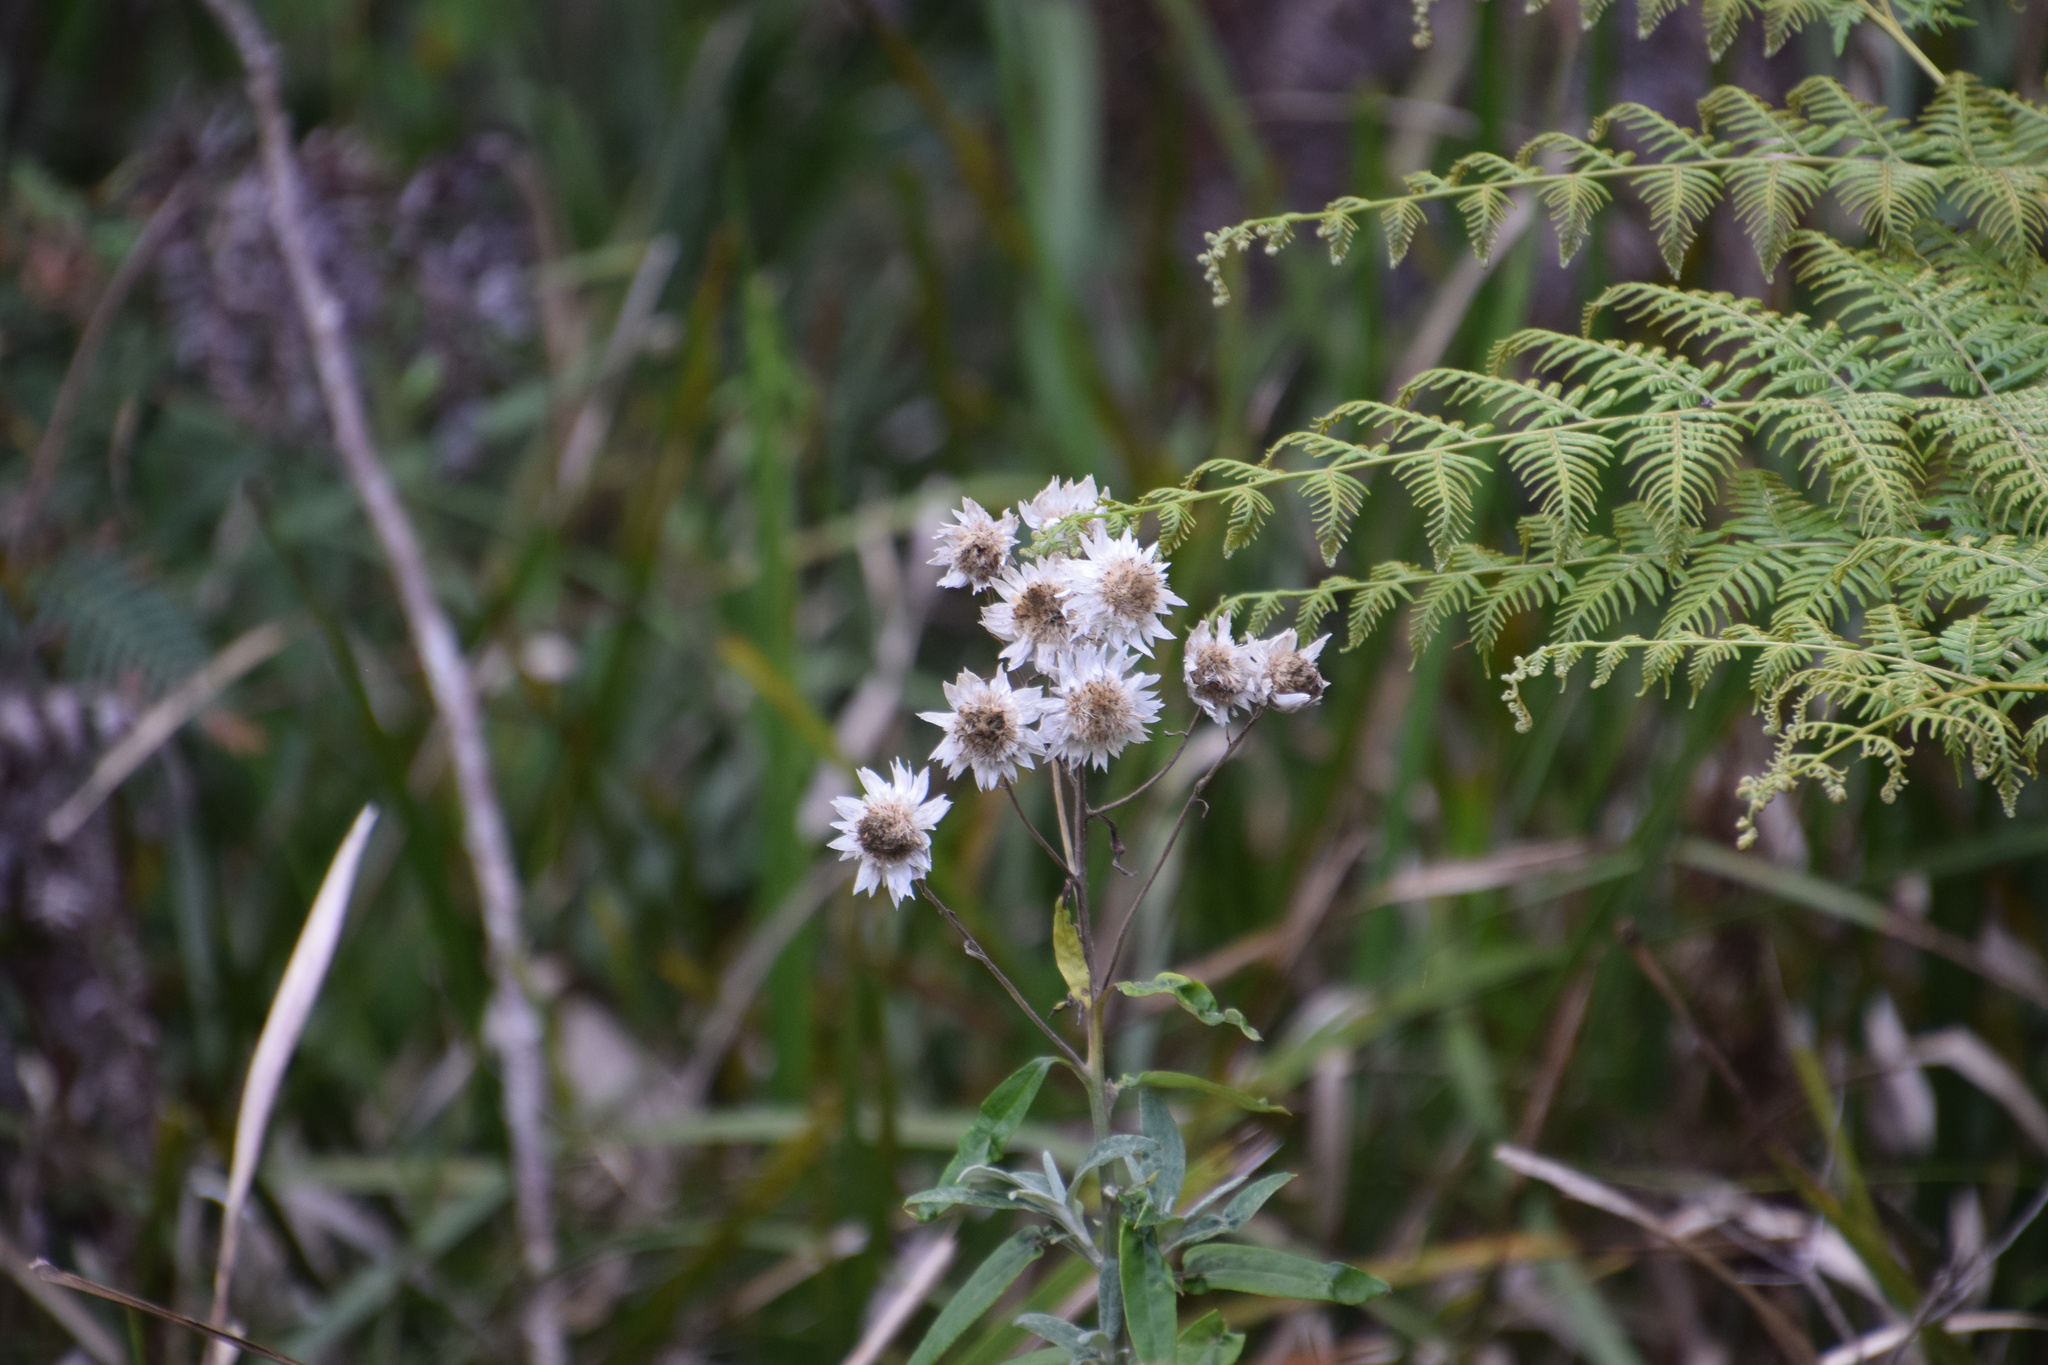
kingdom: Plantae
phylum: Tracheophyta
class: Magnoliopsida
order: Asterales
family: Asteraceae
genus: Leucozoma
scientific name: Leucozoma elatum
